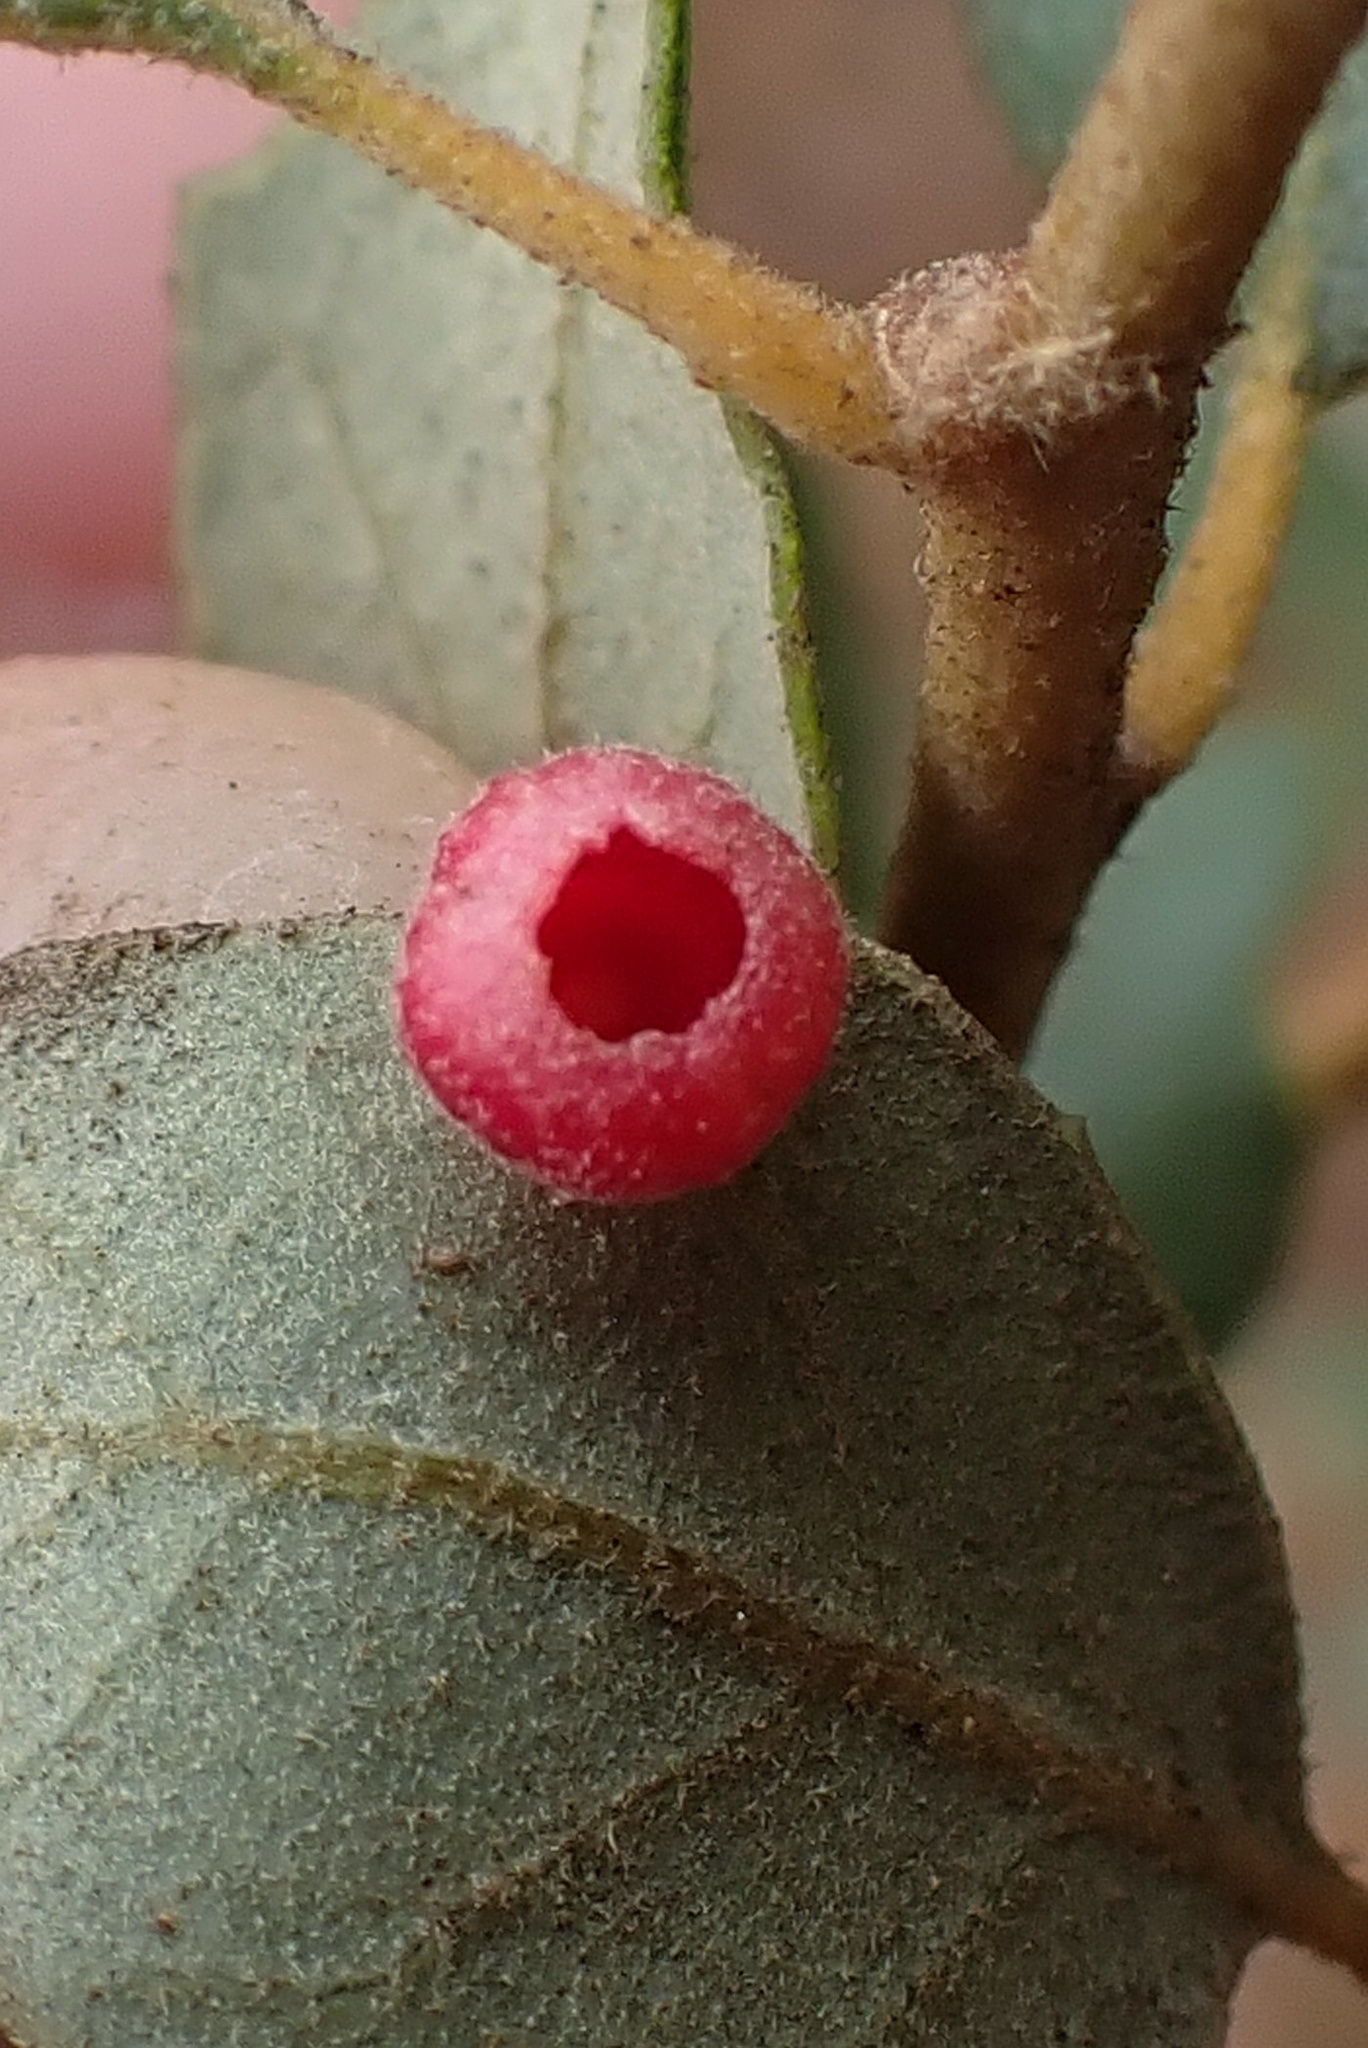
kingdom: Animalia
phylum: Arthropoda
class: Insecta
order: Hymenoptera
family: Cynipidae
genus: Phylloteras
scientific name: Phylloteras
